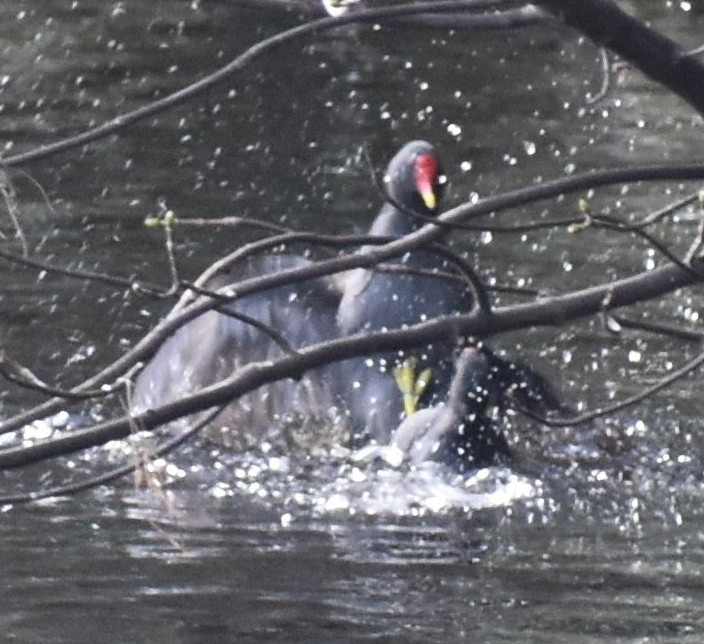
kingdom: Animalia
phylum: Chordata
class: Aves
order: Gruiformes
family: Rallidae
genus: Gallinula
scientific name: Gallinula chloropus
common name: Common moorhen
